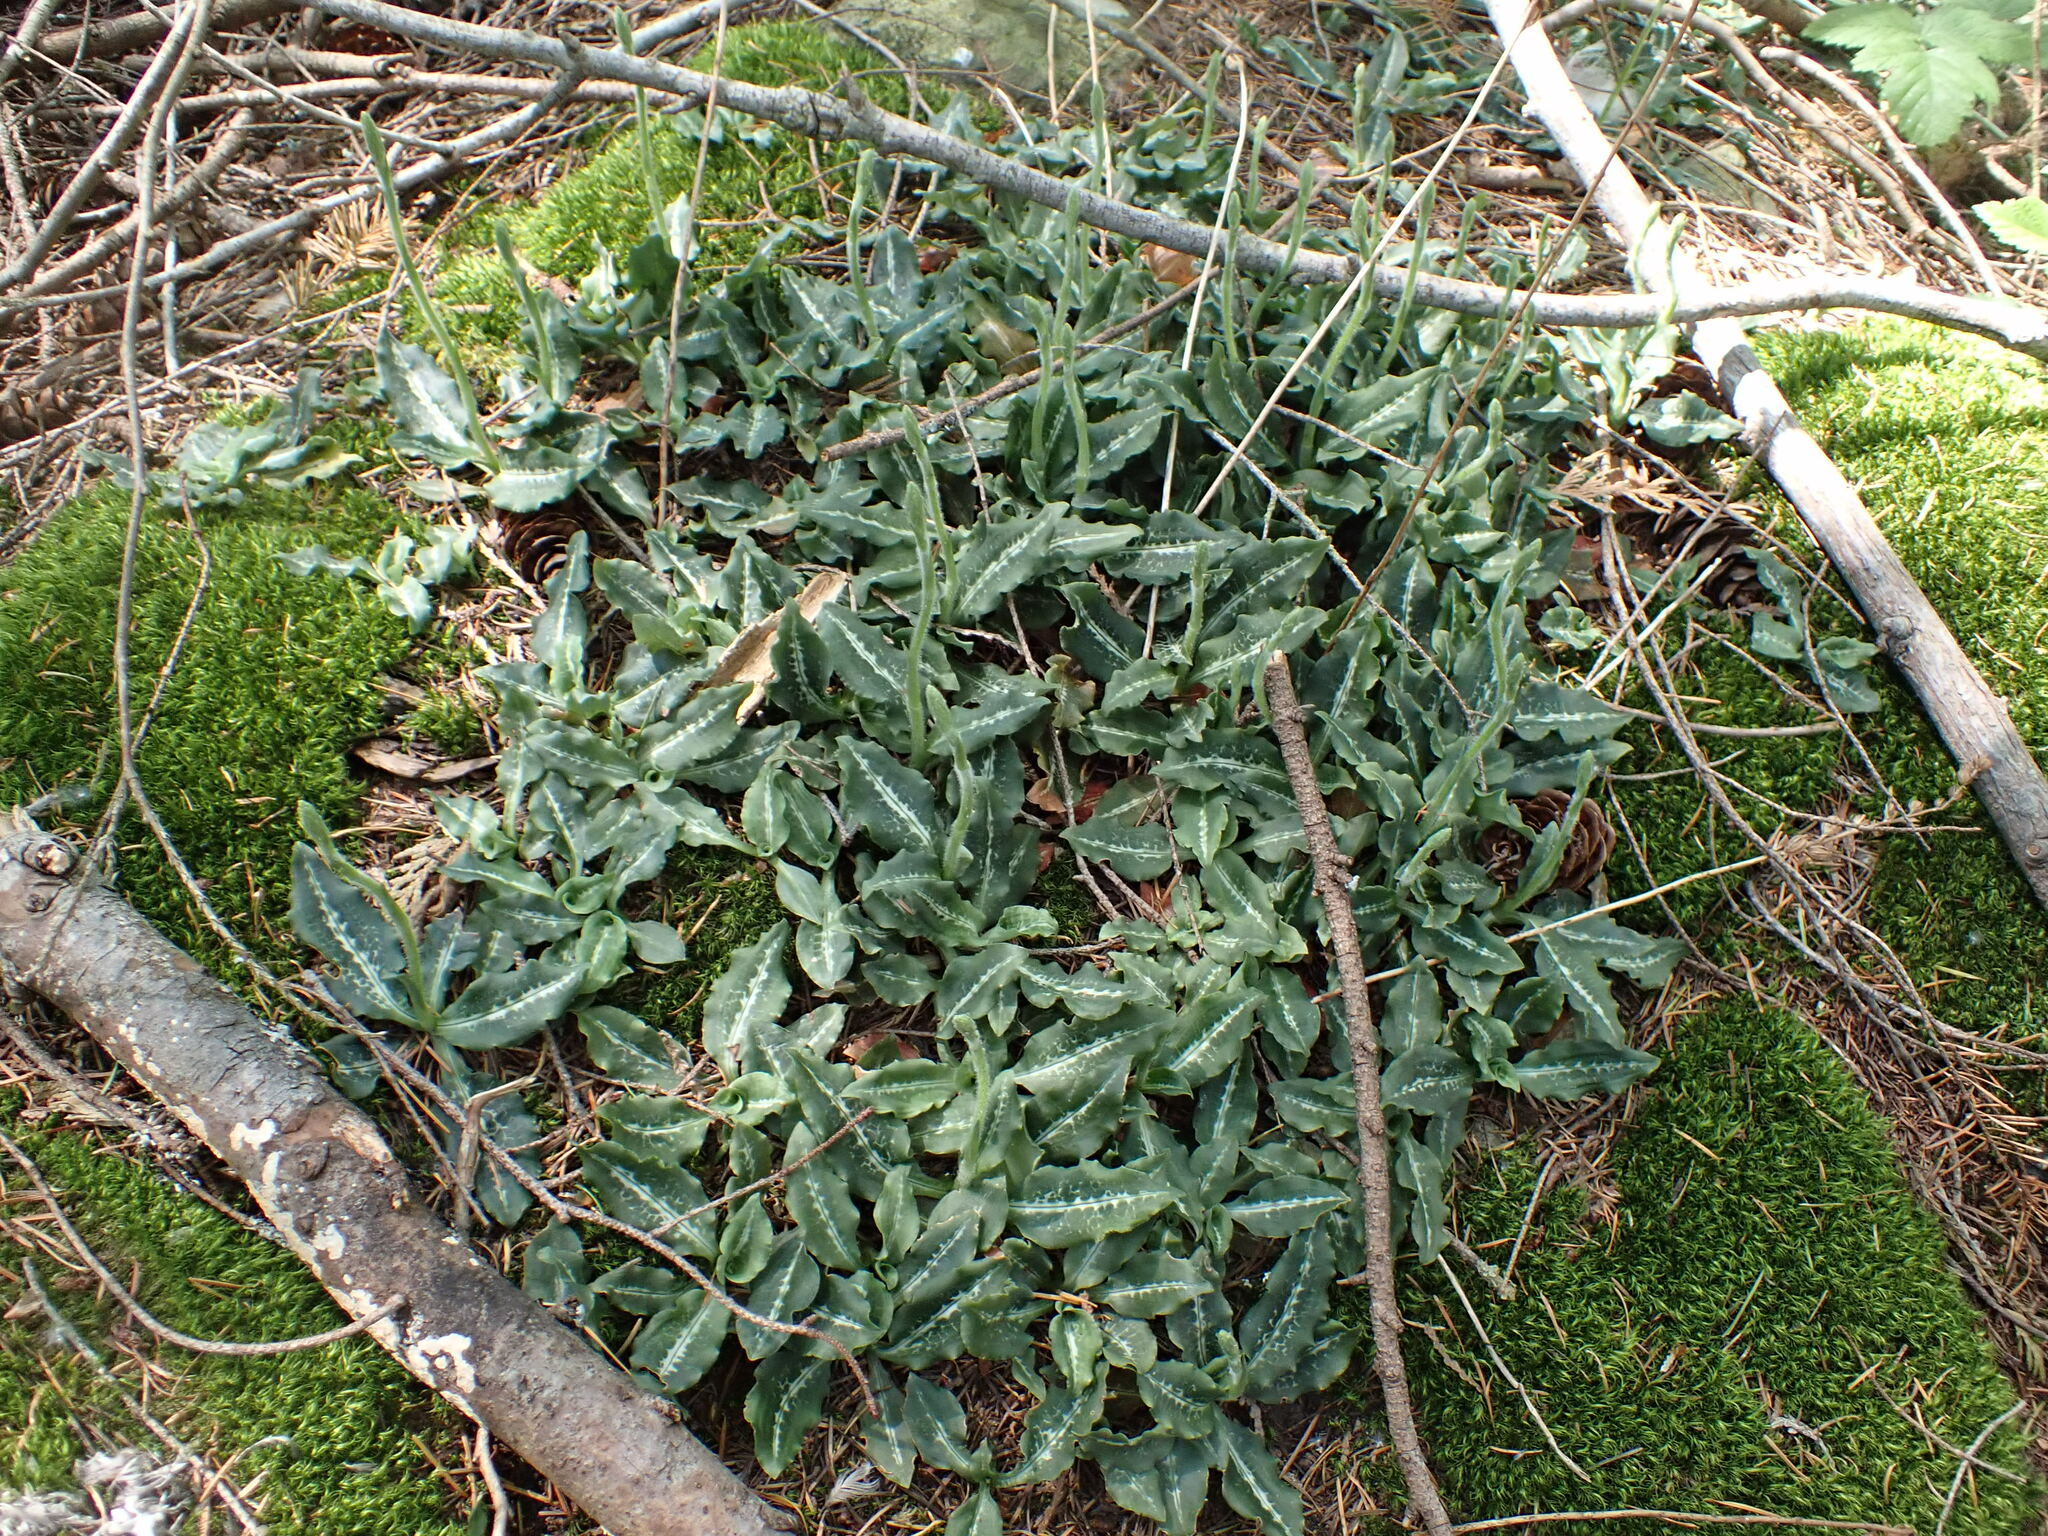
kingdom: Plantae
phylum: Tracheophyta
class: Liliopsida
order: Asparagales
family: Orchidaceae
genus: Goodyera
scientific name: Goodyera oblongifolia
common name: Giant rattlesnake-plantain
